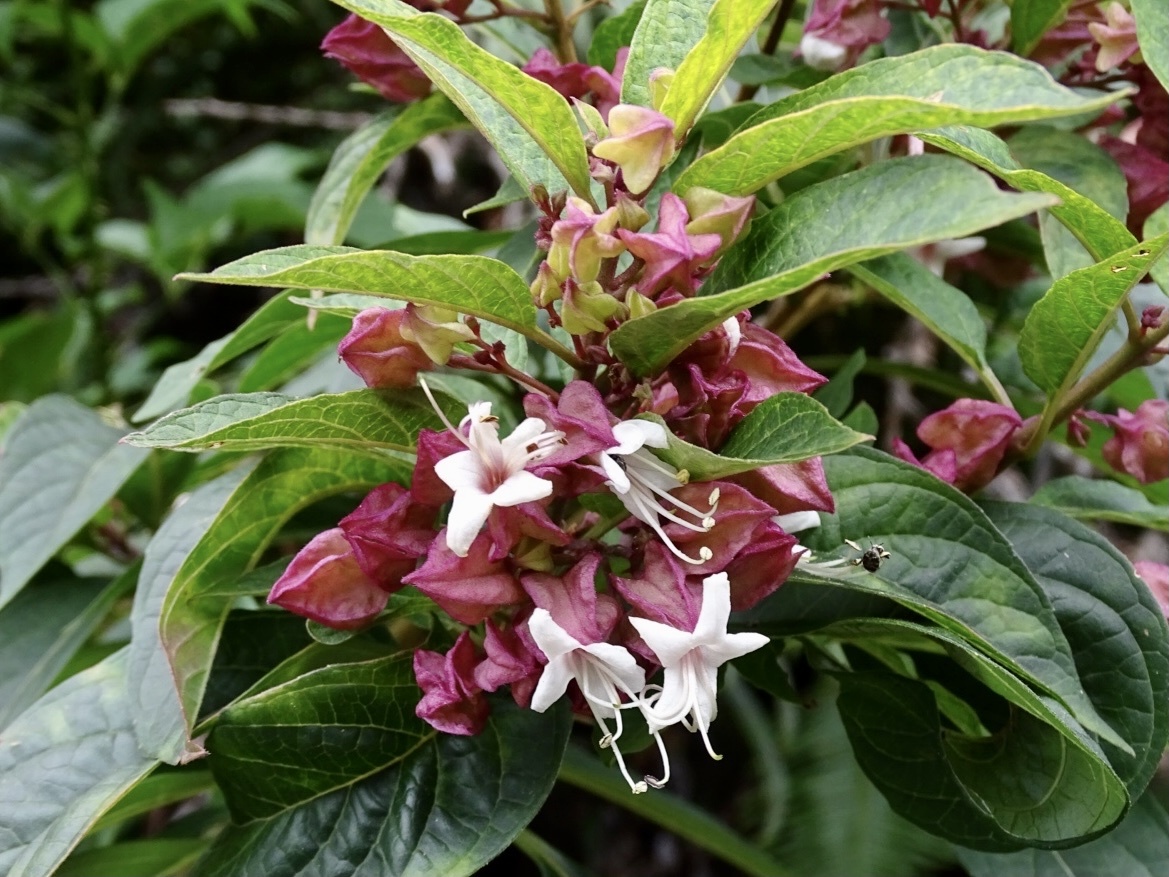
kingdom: Plantae
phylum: Tracheophyta
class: Magnoliopsida
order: Lamiales
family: Lamiaceae
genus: Clerodendrum
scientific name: Clerodendrum fortunatum
